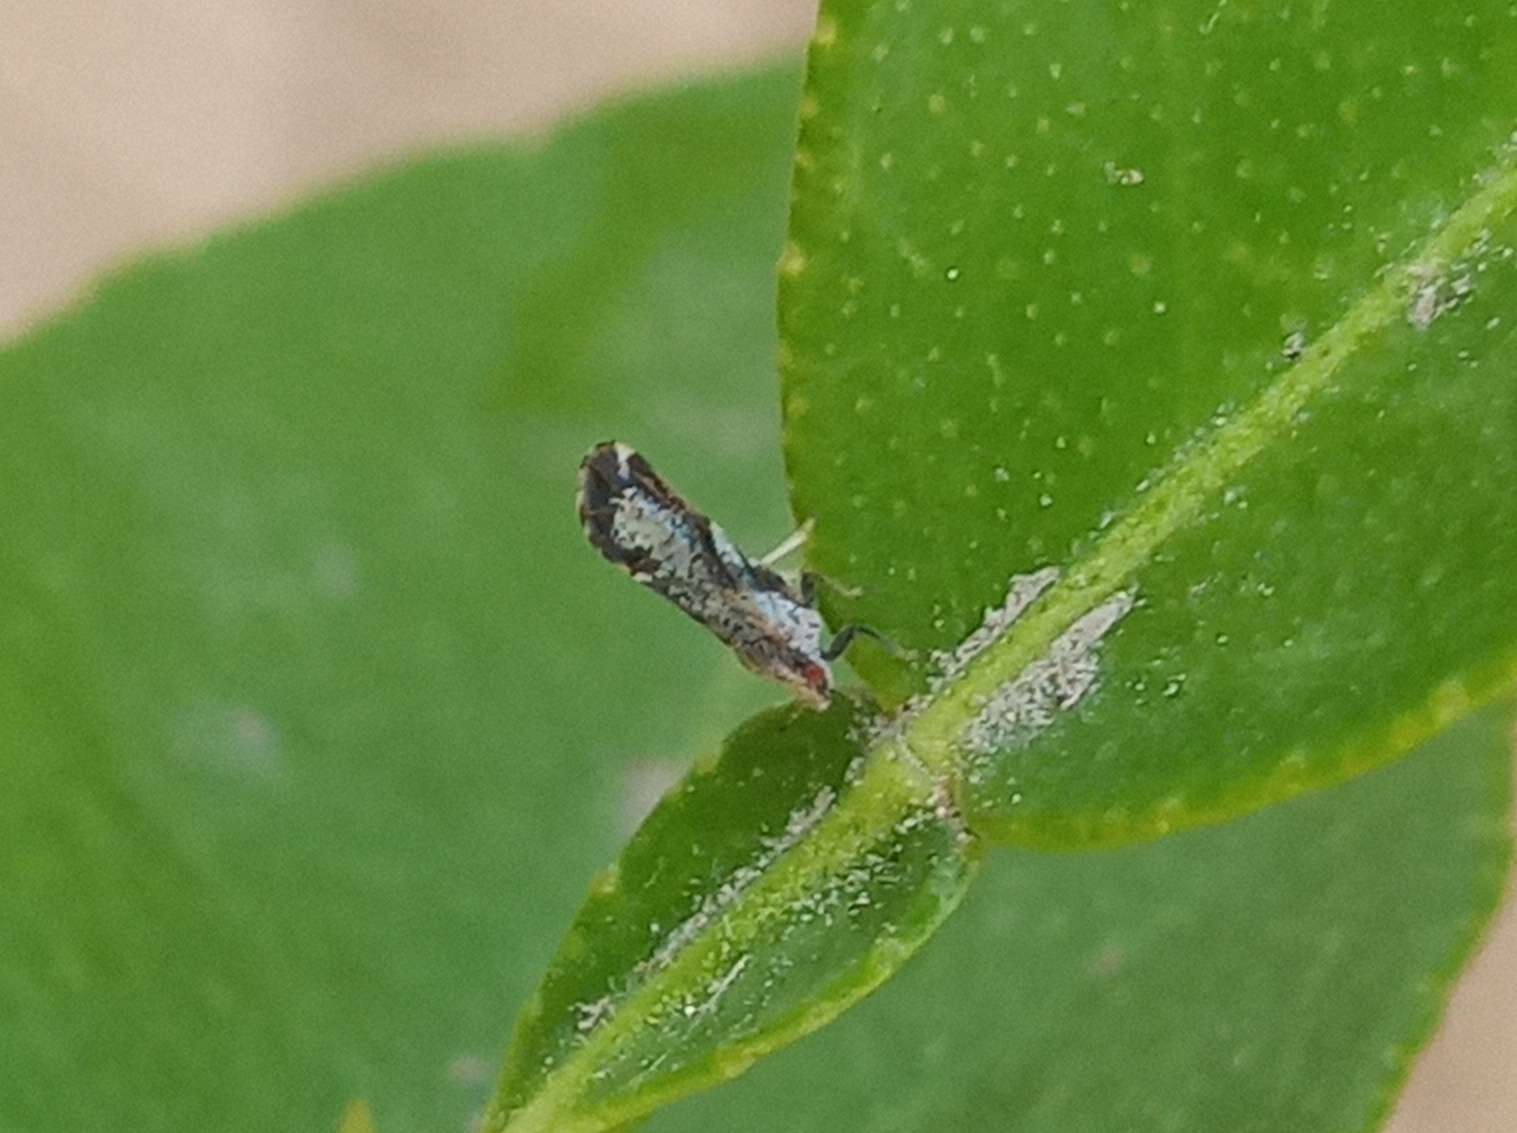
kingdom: Animalia
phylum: Arthropoda
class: Insecta
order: Hemiptera
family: Liviidae
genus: Diaphorina
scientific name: Diaphorina citri
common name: Asian citrus psyllid
